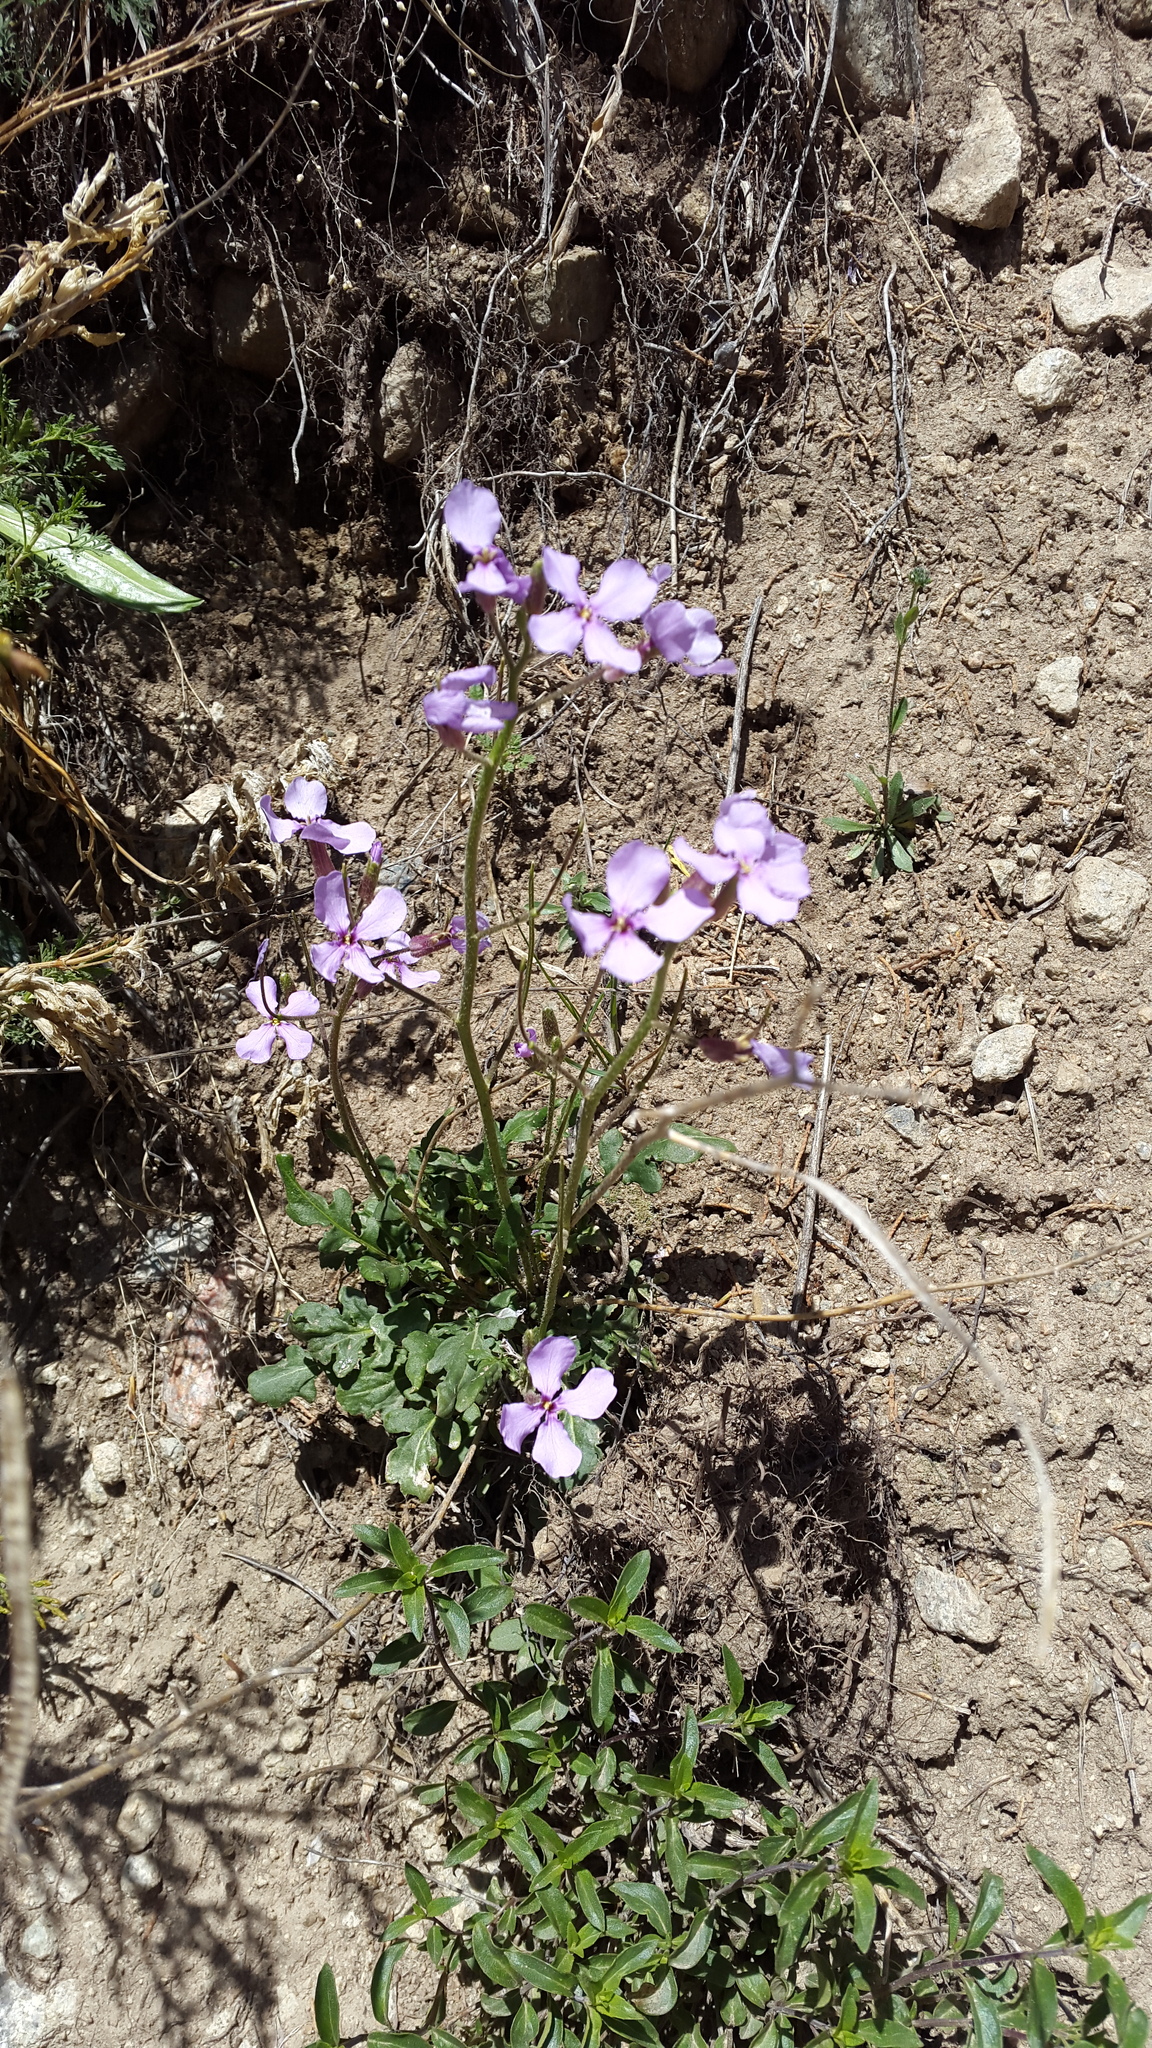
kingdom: Plantae
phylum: Tracheophyta
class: Magnoliopsida
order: Brassicales
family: Brassicaceae
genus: Parrya
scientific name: Parrya subsiliquosa
